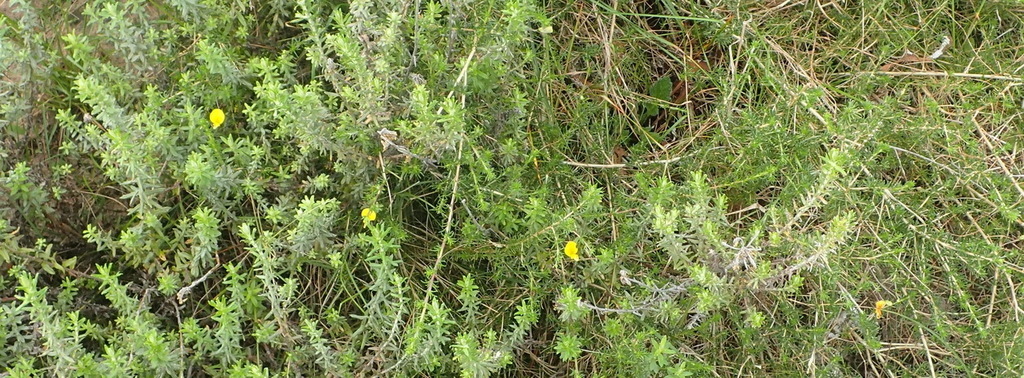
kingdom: Plantae
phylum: Tracheophyta
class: Magnoliopsida
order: Fabales
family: Fabaceae
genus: Aspalathus
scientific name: Aspalathus biflora
